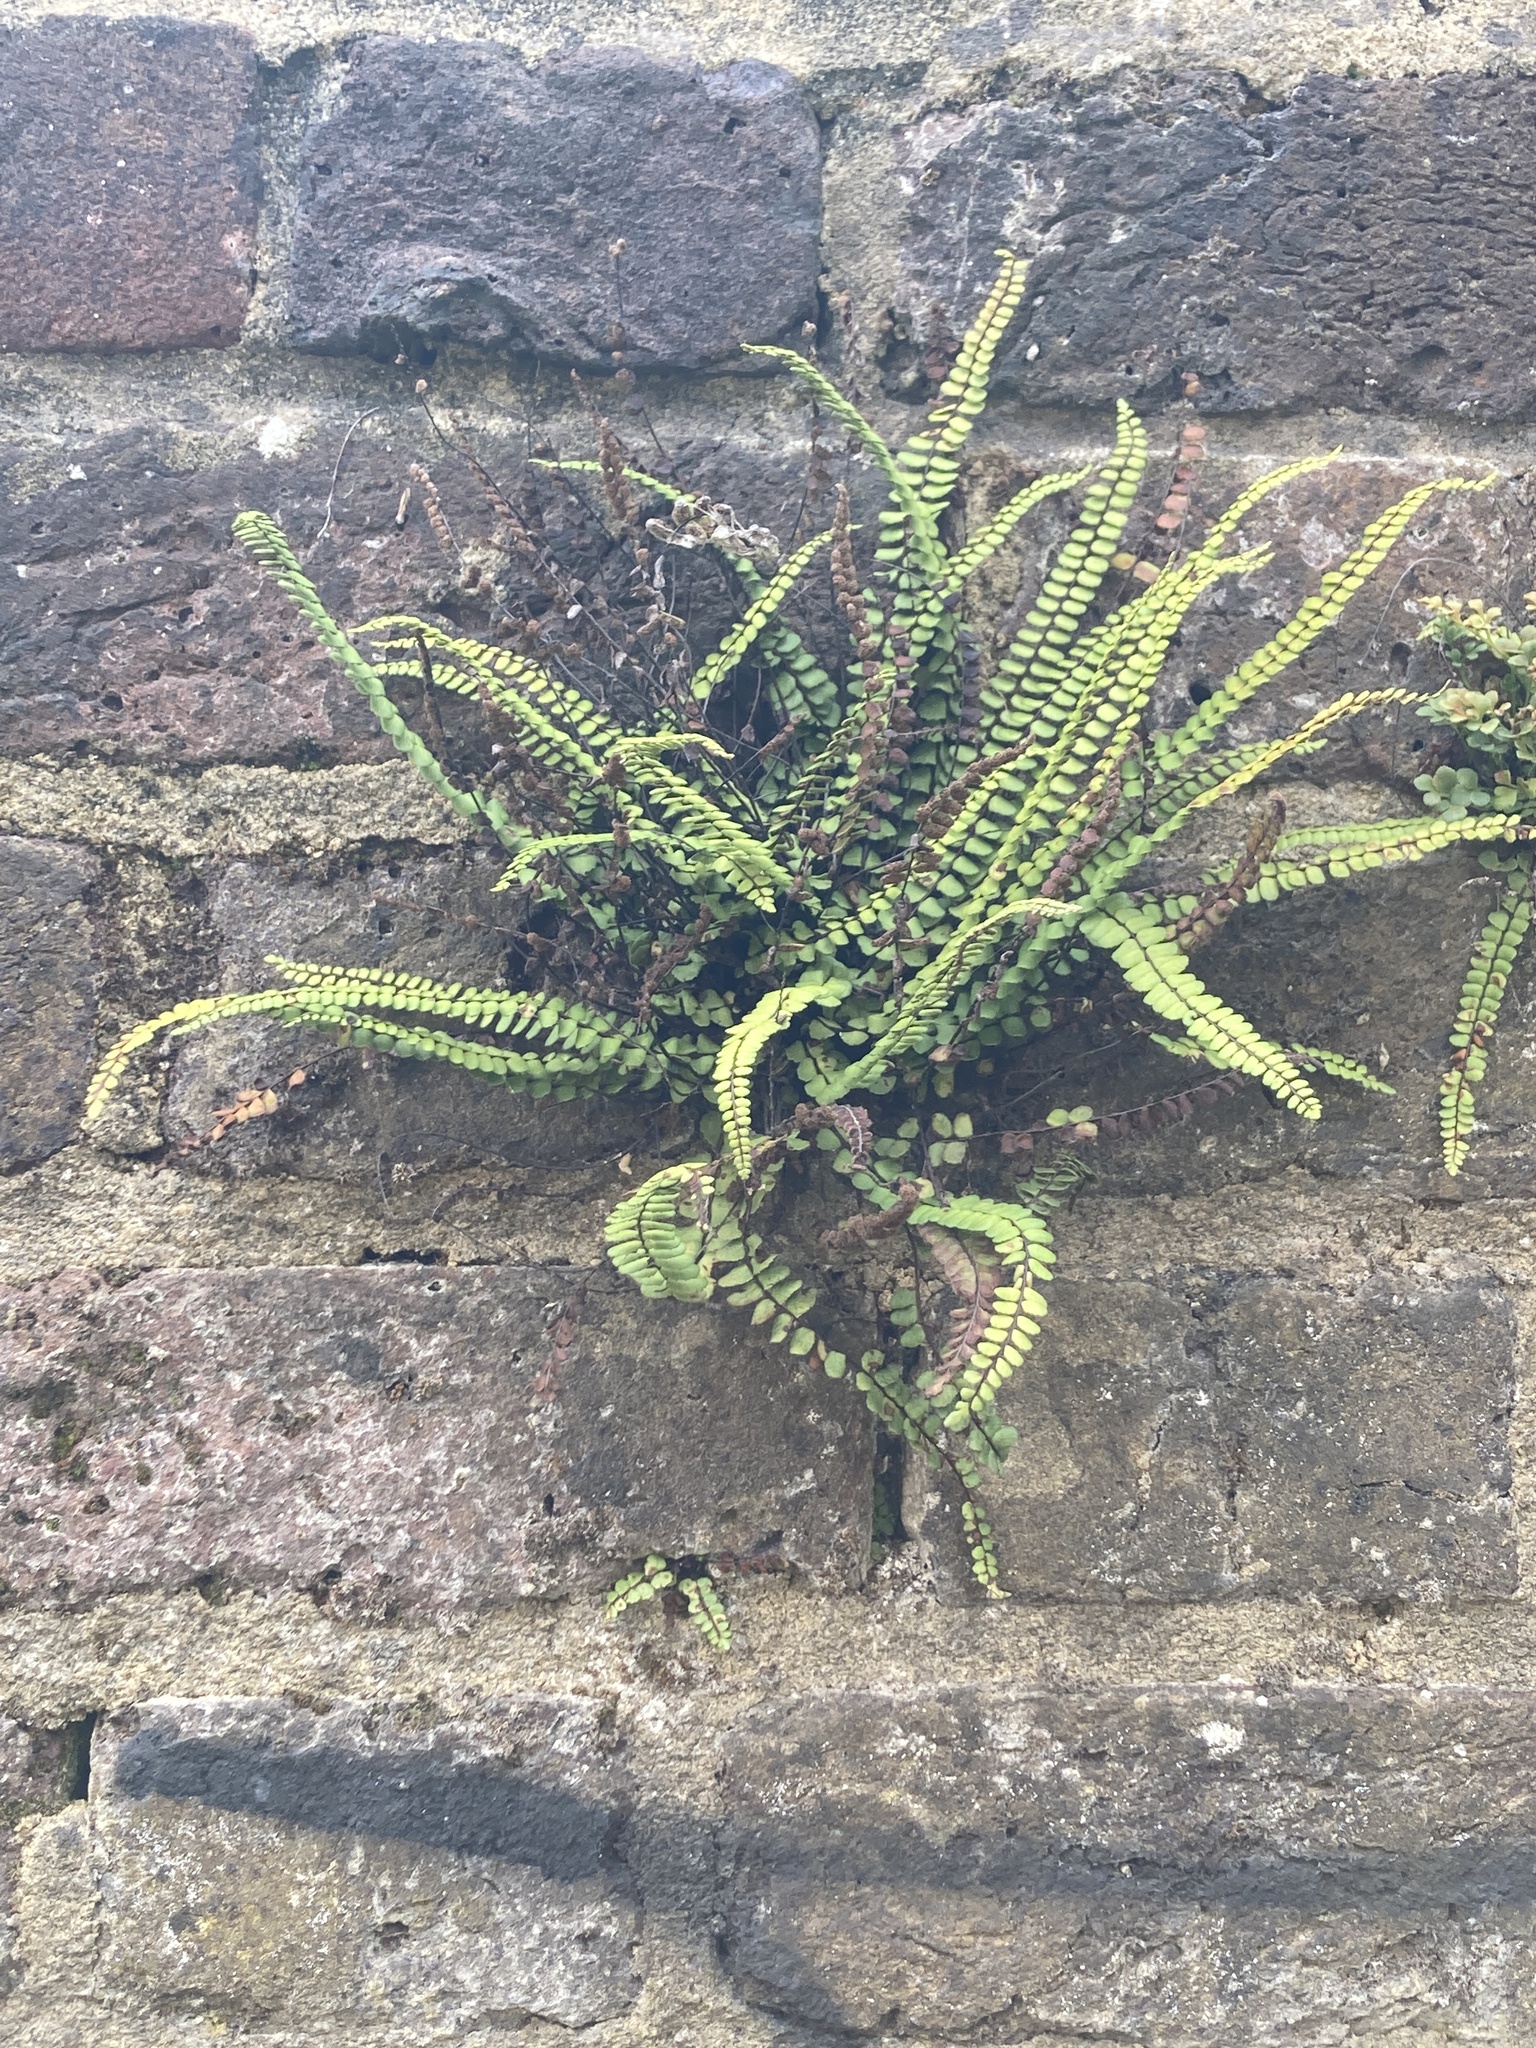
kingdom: Plantae
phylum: Tracheophyta
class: Polypodiopsida
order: Polypodiales
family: Aspleniaceae
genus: Asplenium
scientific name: Asplenium trichomanes
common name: Maidenhair spleenwort
